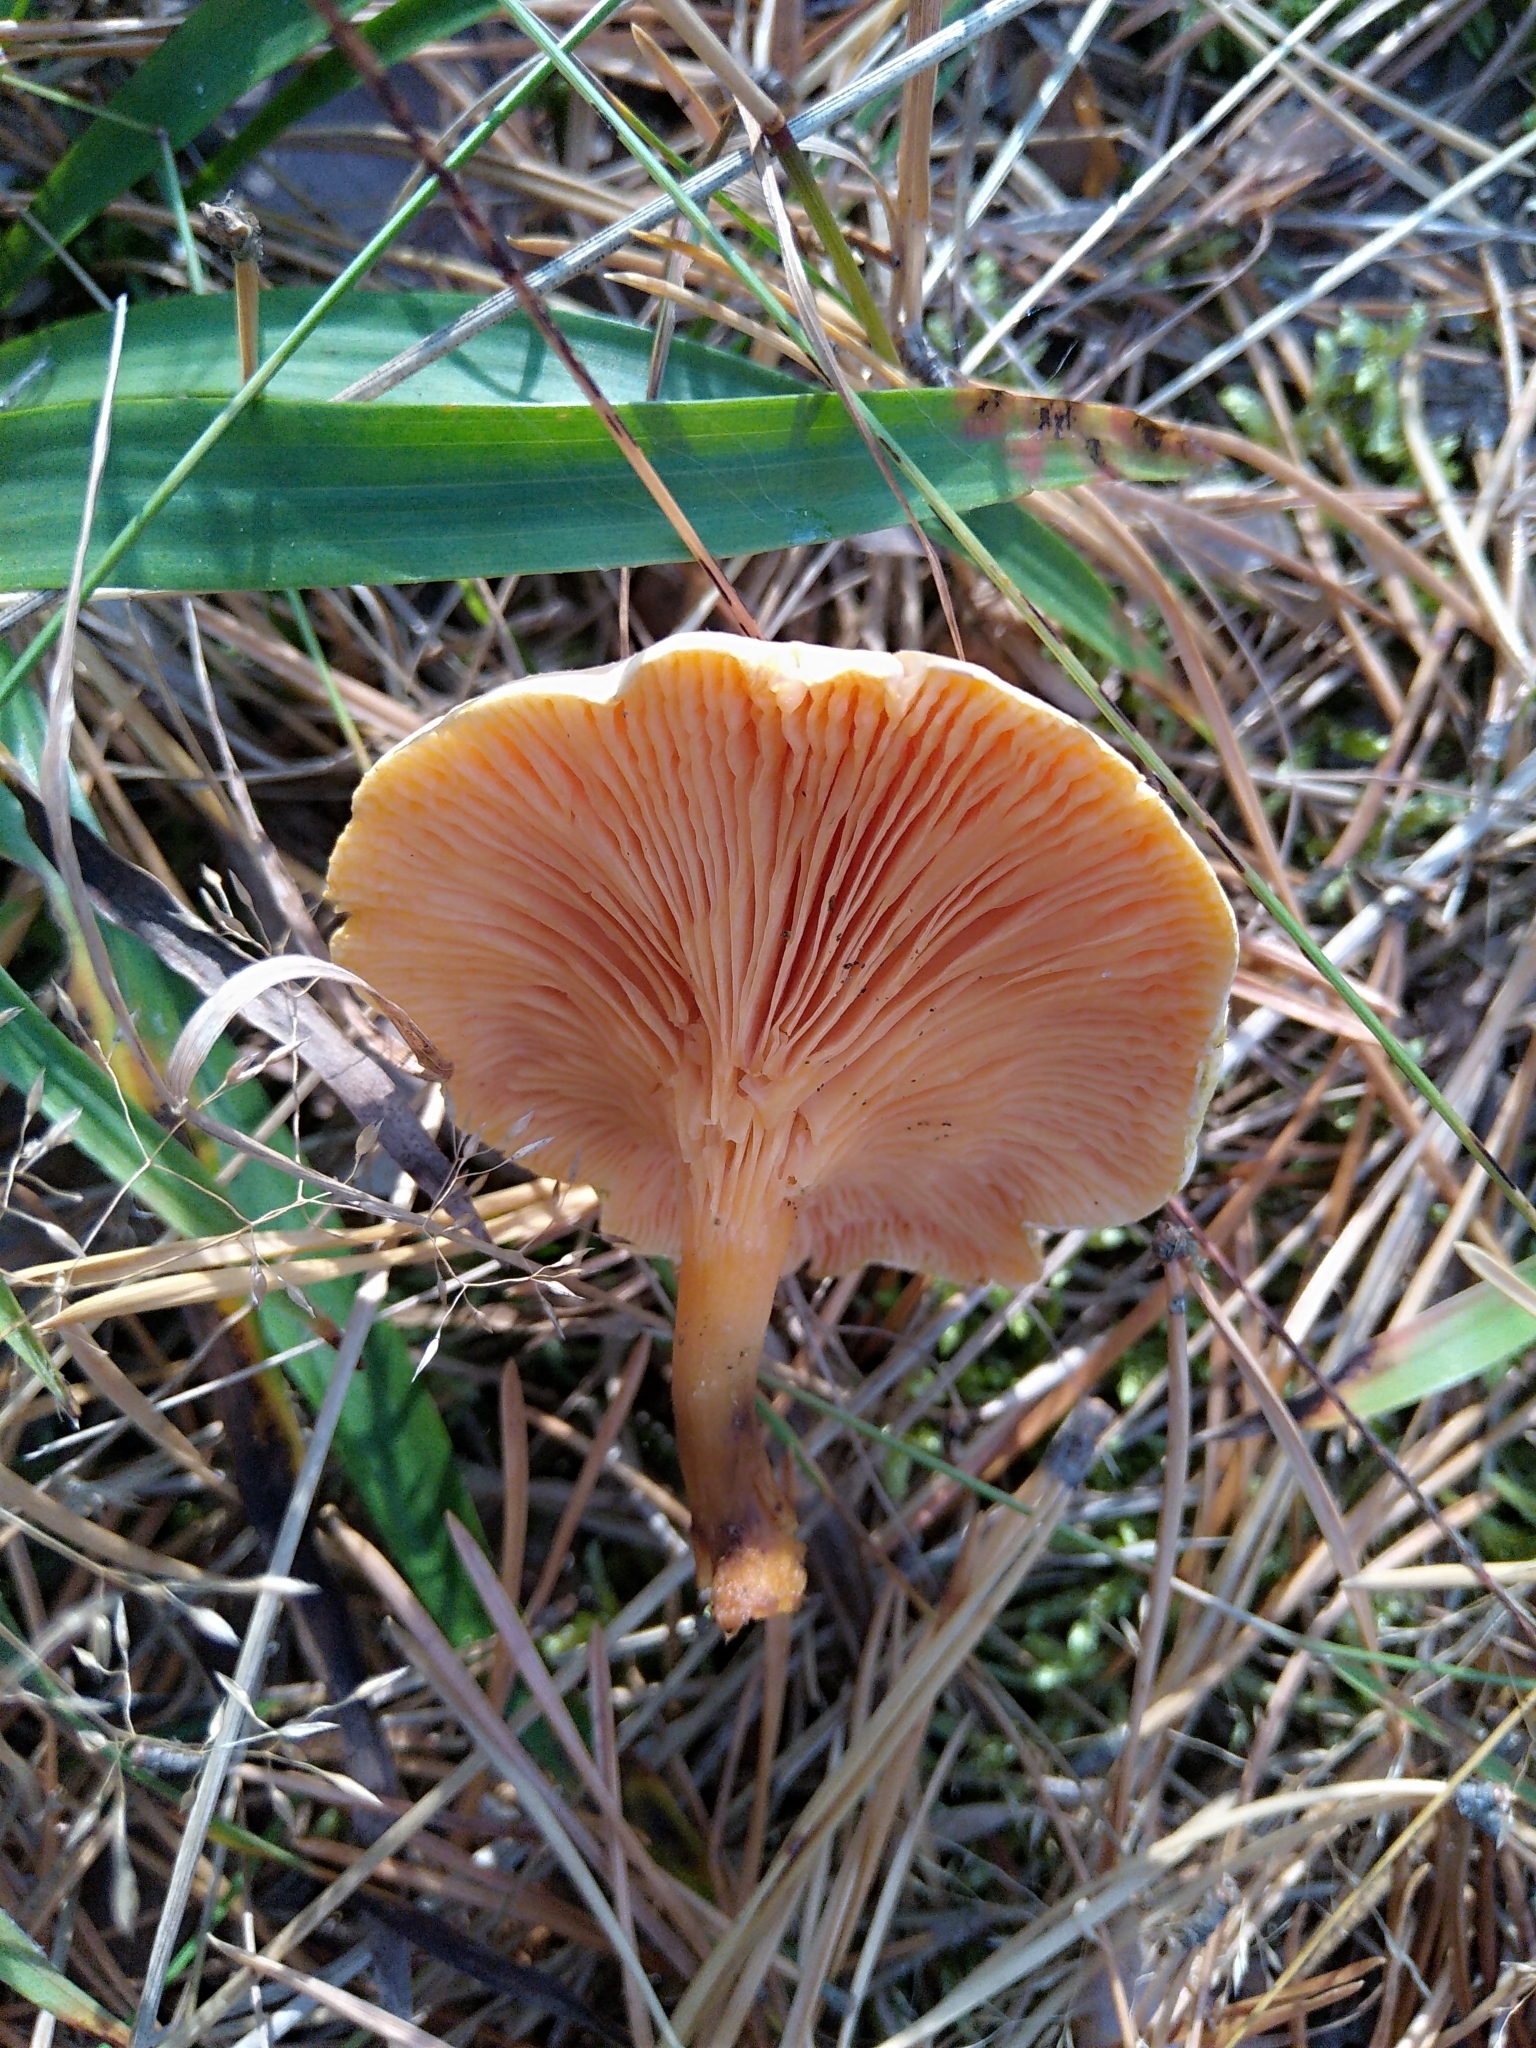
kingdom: Fungi
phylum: Basidiomycota
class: Agaricomycetes
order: Boletales
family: Hygrophoropsidaceae
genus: Hygrophoropsis
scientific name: Hygrophoropsis aurantiaca
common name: False chanterelle
